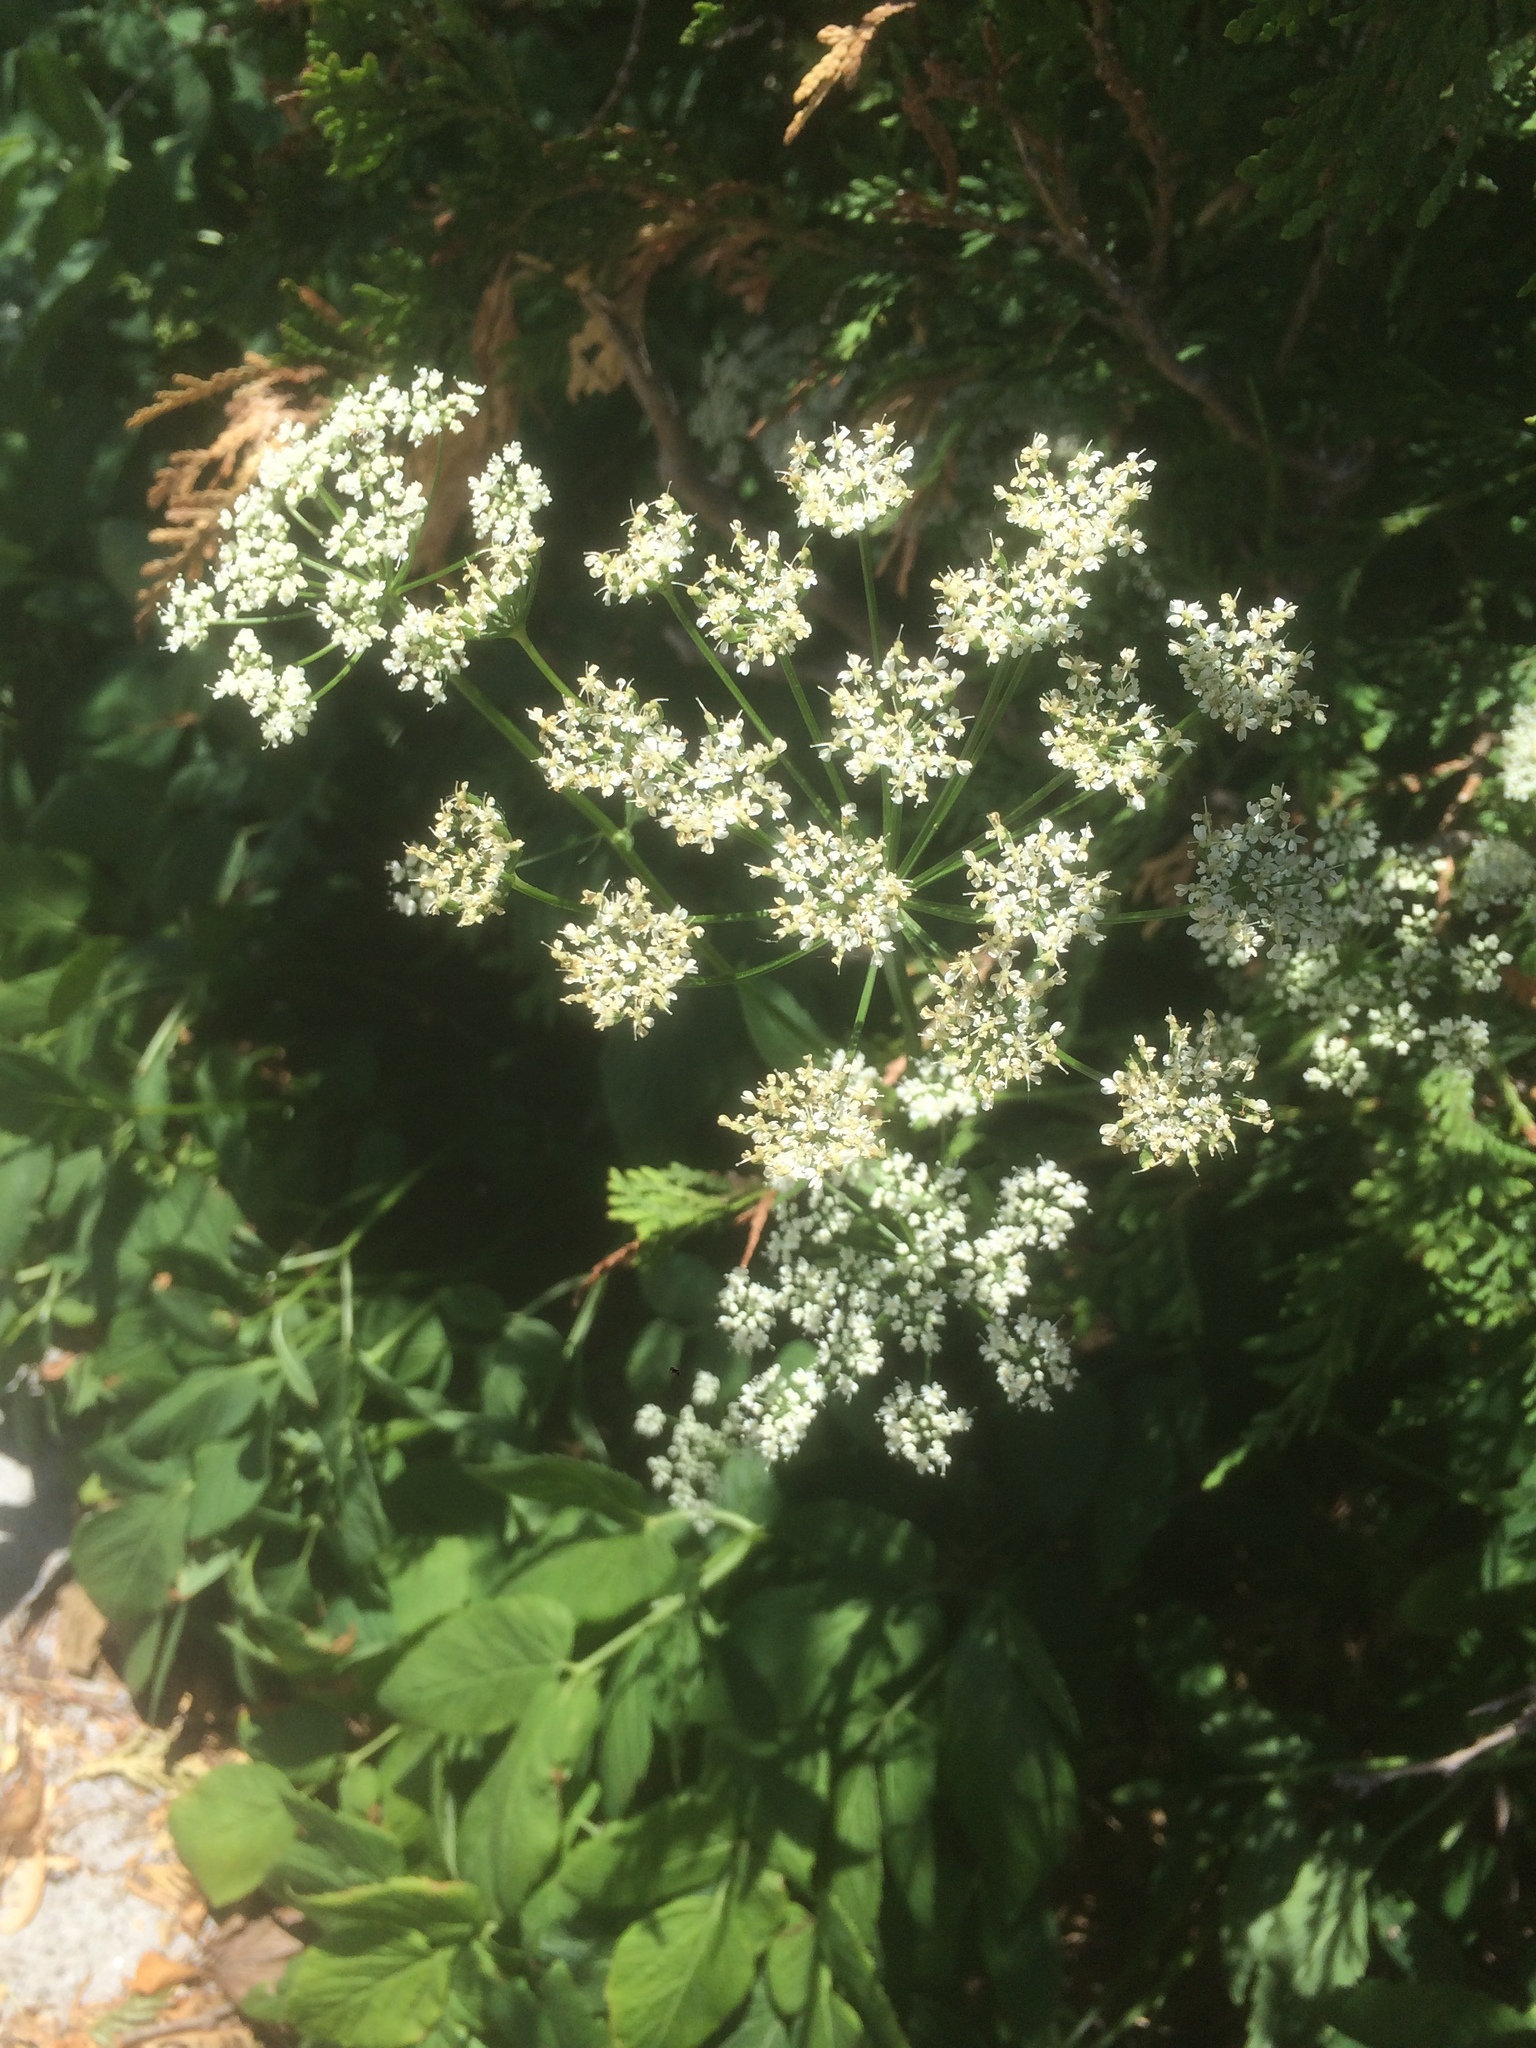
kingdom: Plantae
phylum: Tracheophyta
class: Magnoliopsida
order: Apiales
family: Apiaceae
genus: Aegopodium
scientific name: Aegopodium podagraria
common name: Ground-elder
